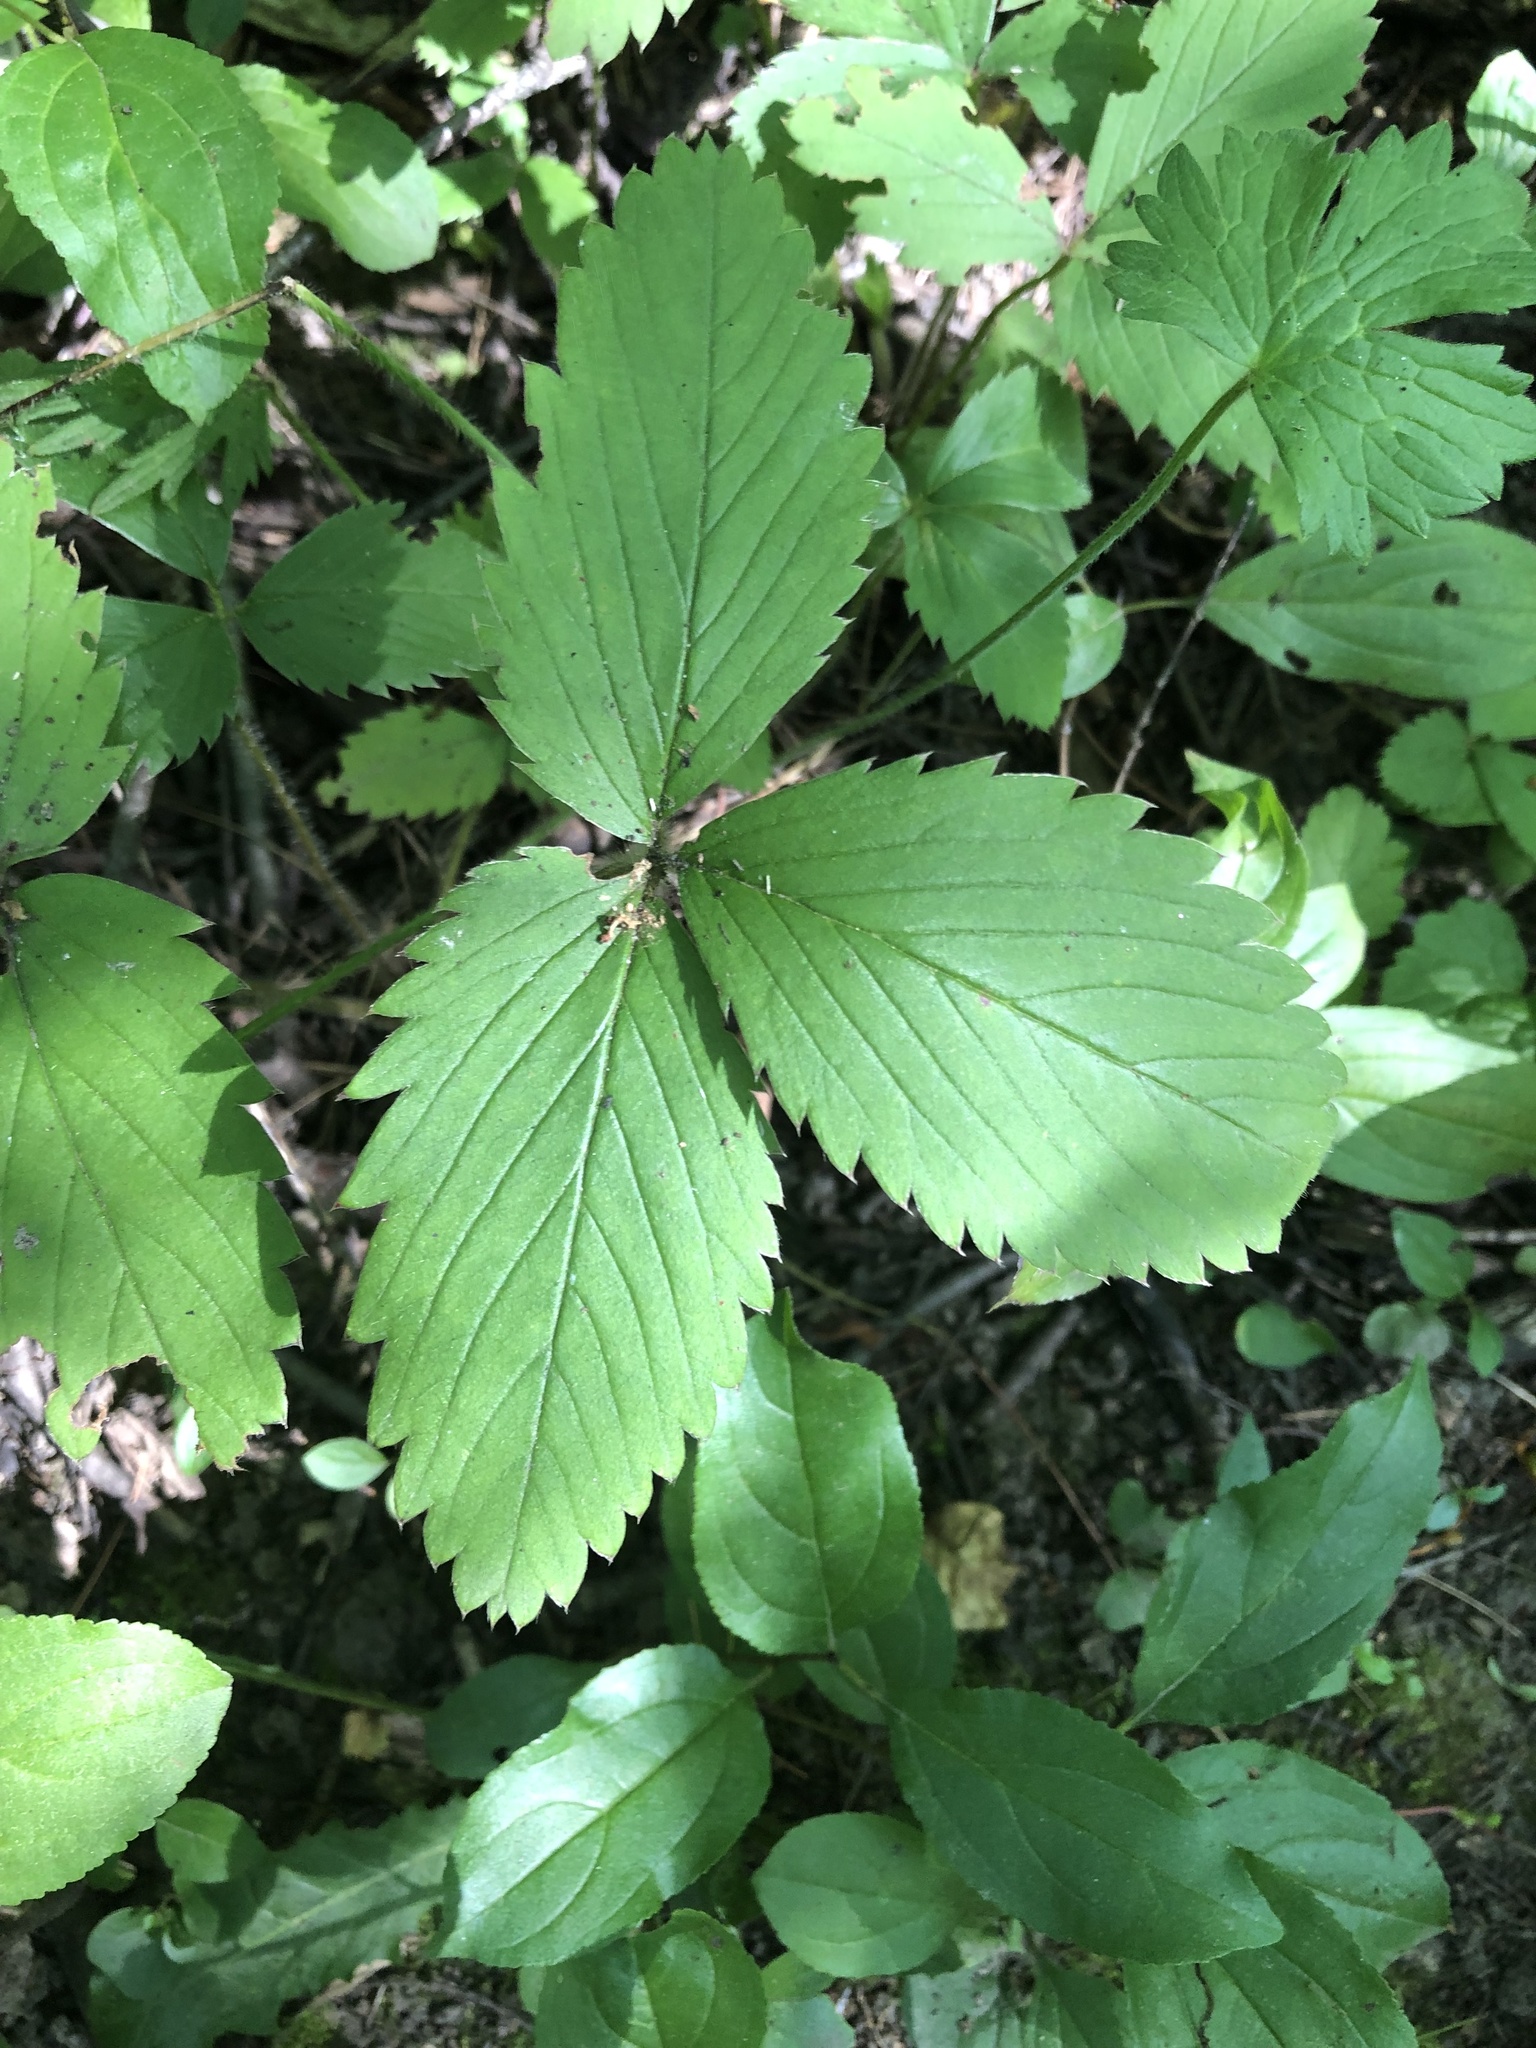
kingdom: Plantae
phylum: Tracheophyta
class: Magnoliopsida
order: Rosales
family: Rosaceae
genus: Fragaria
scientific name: Fragaria virginiana
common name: Thickleaved wild strawberry
